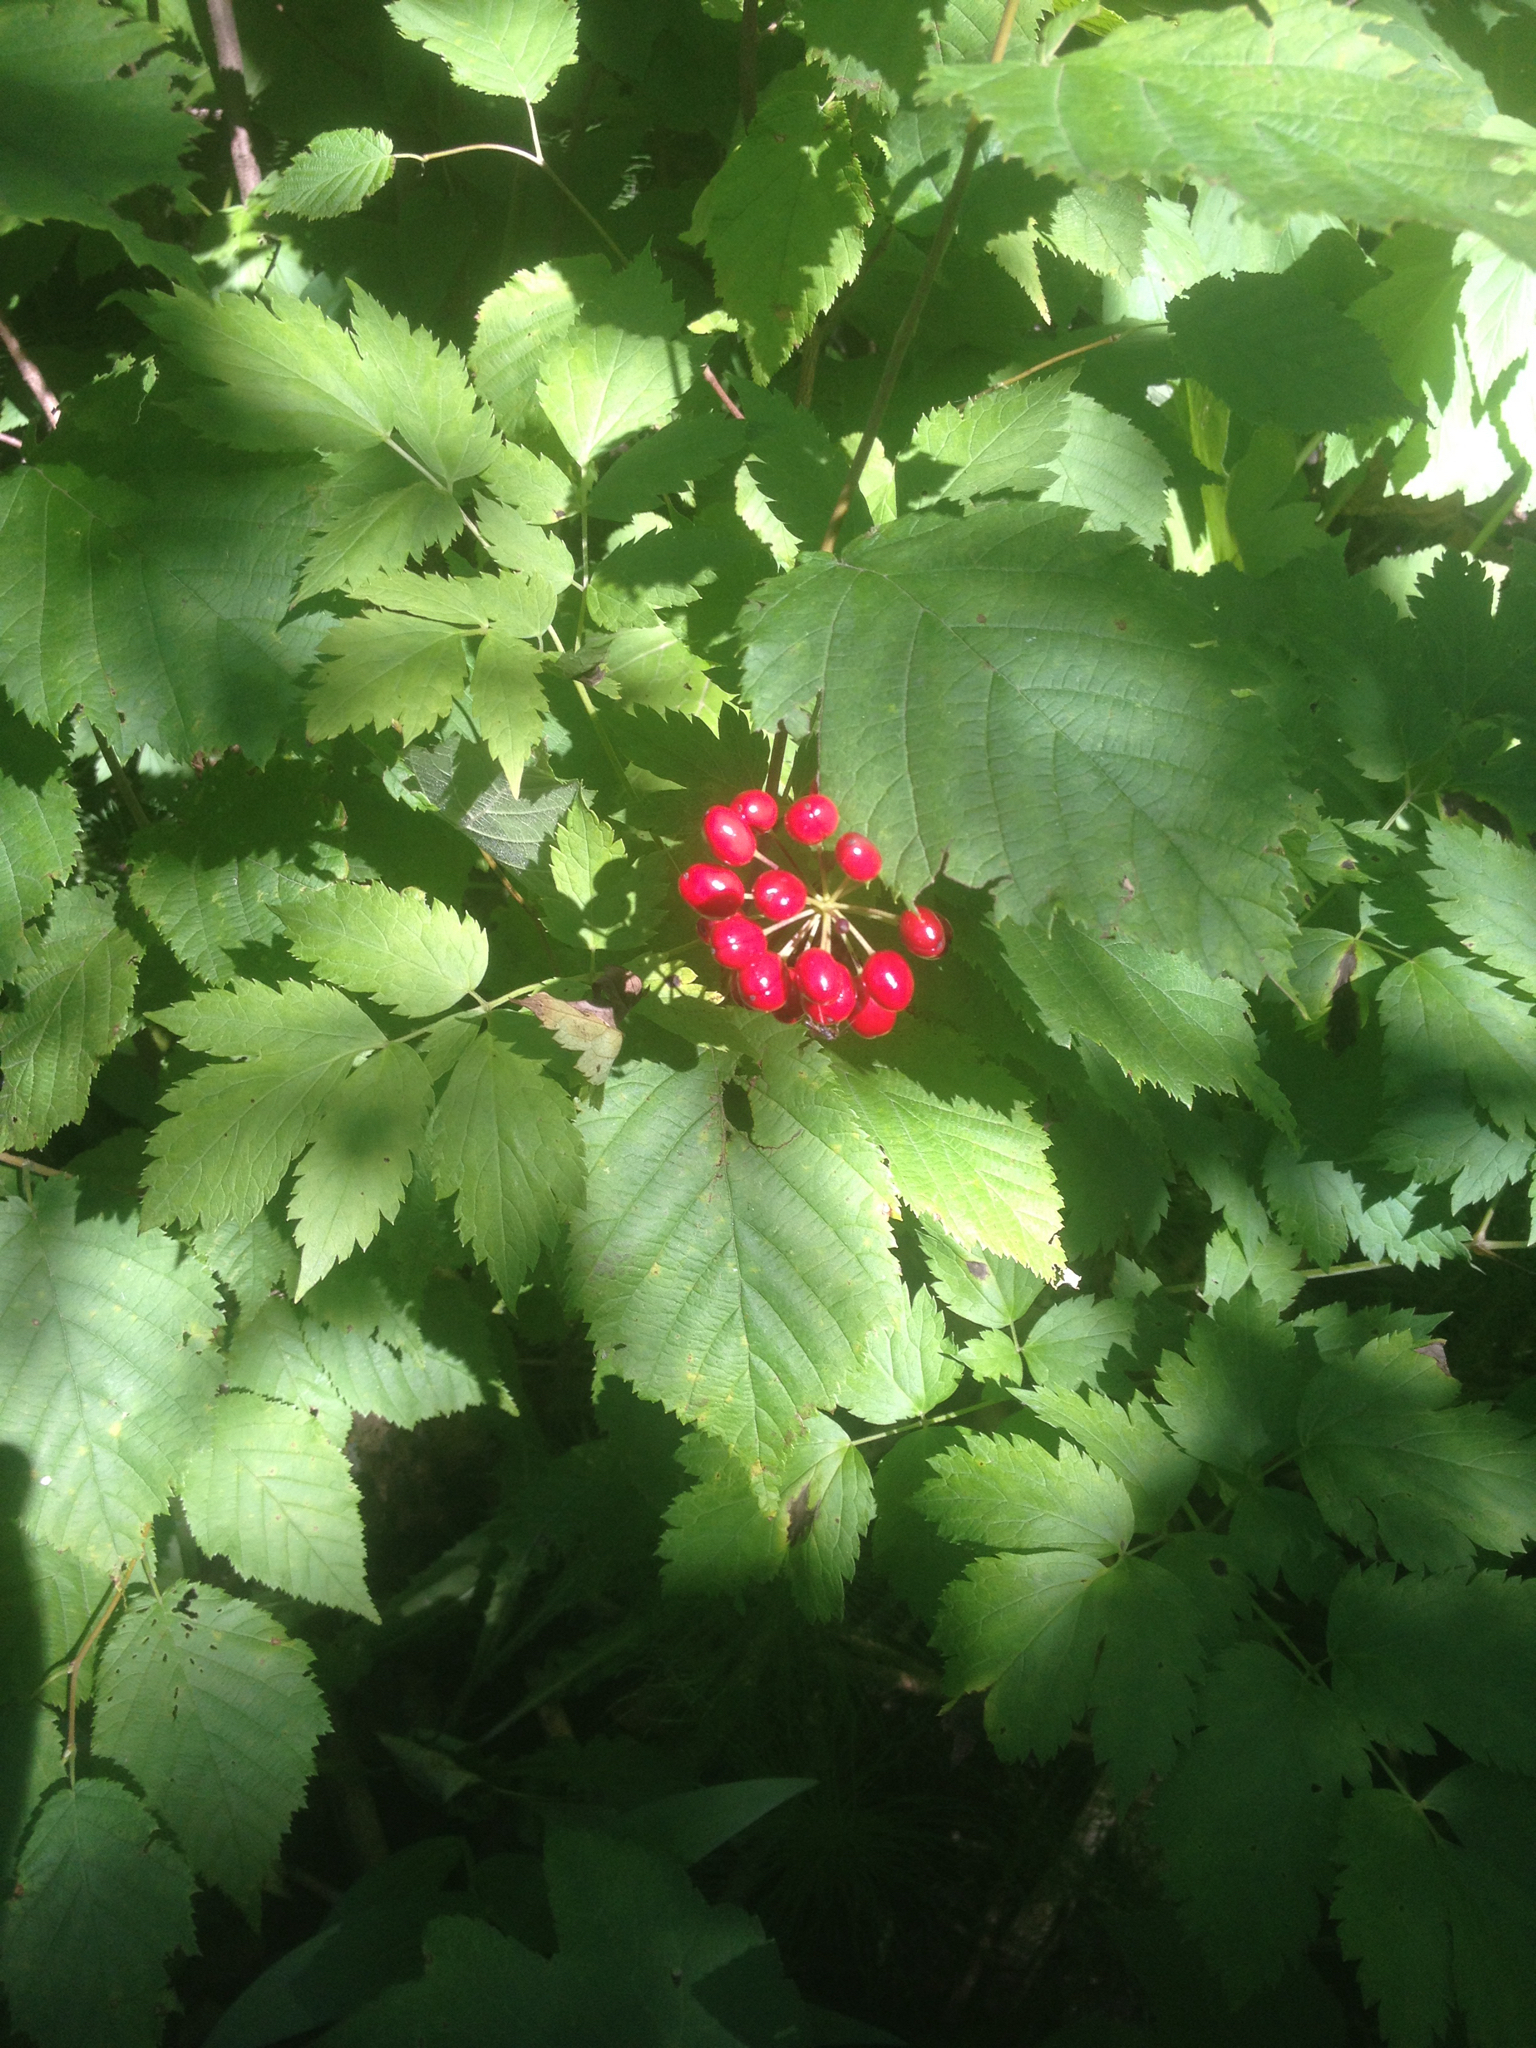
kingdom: Plantae
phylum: Tracheophyta
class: Magnoliopsida
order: Ranunculales
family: Ranunculaceae
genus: Actaea
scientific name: Actaea rubra
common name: Red baneberry
